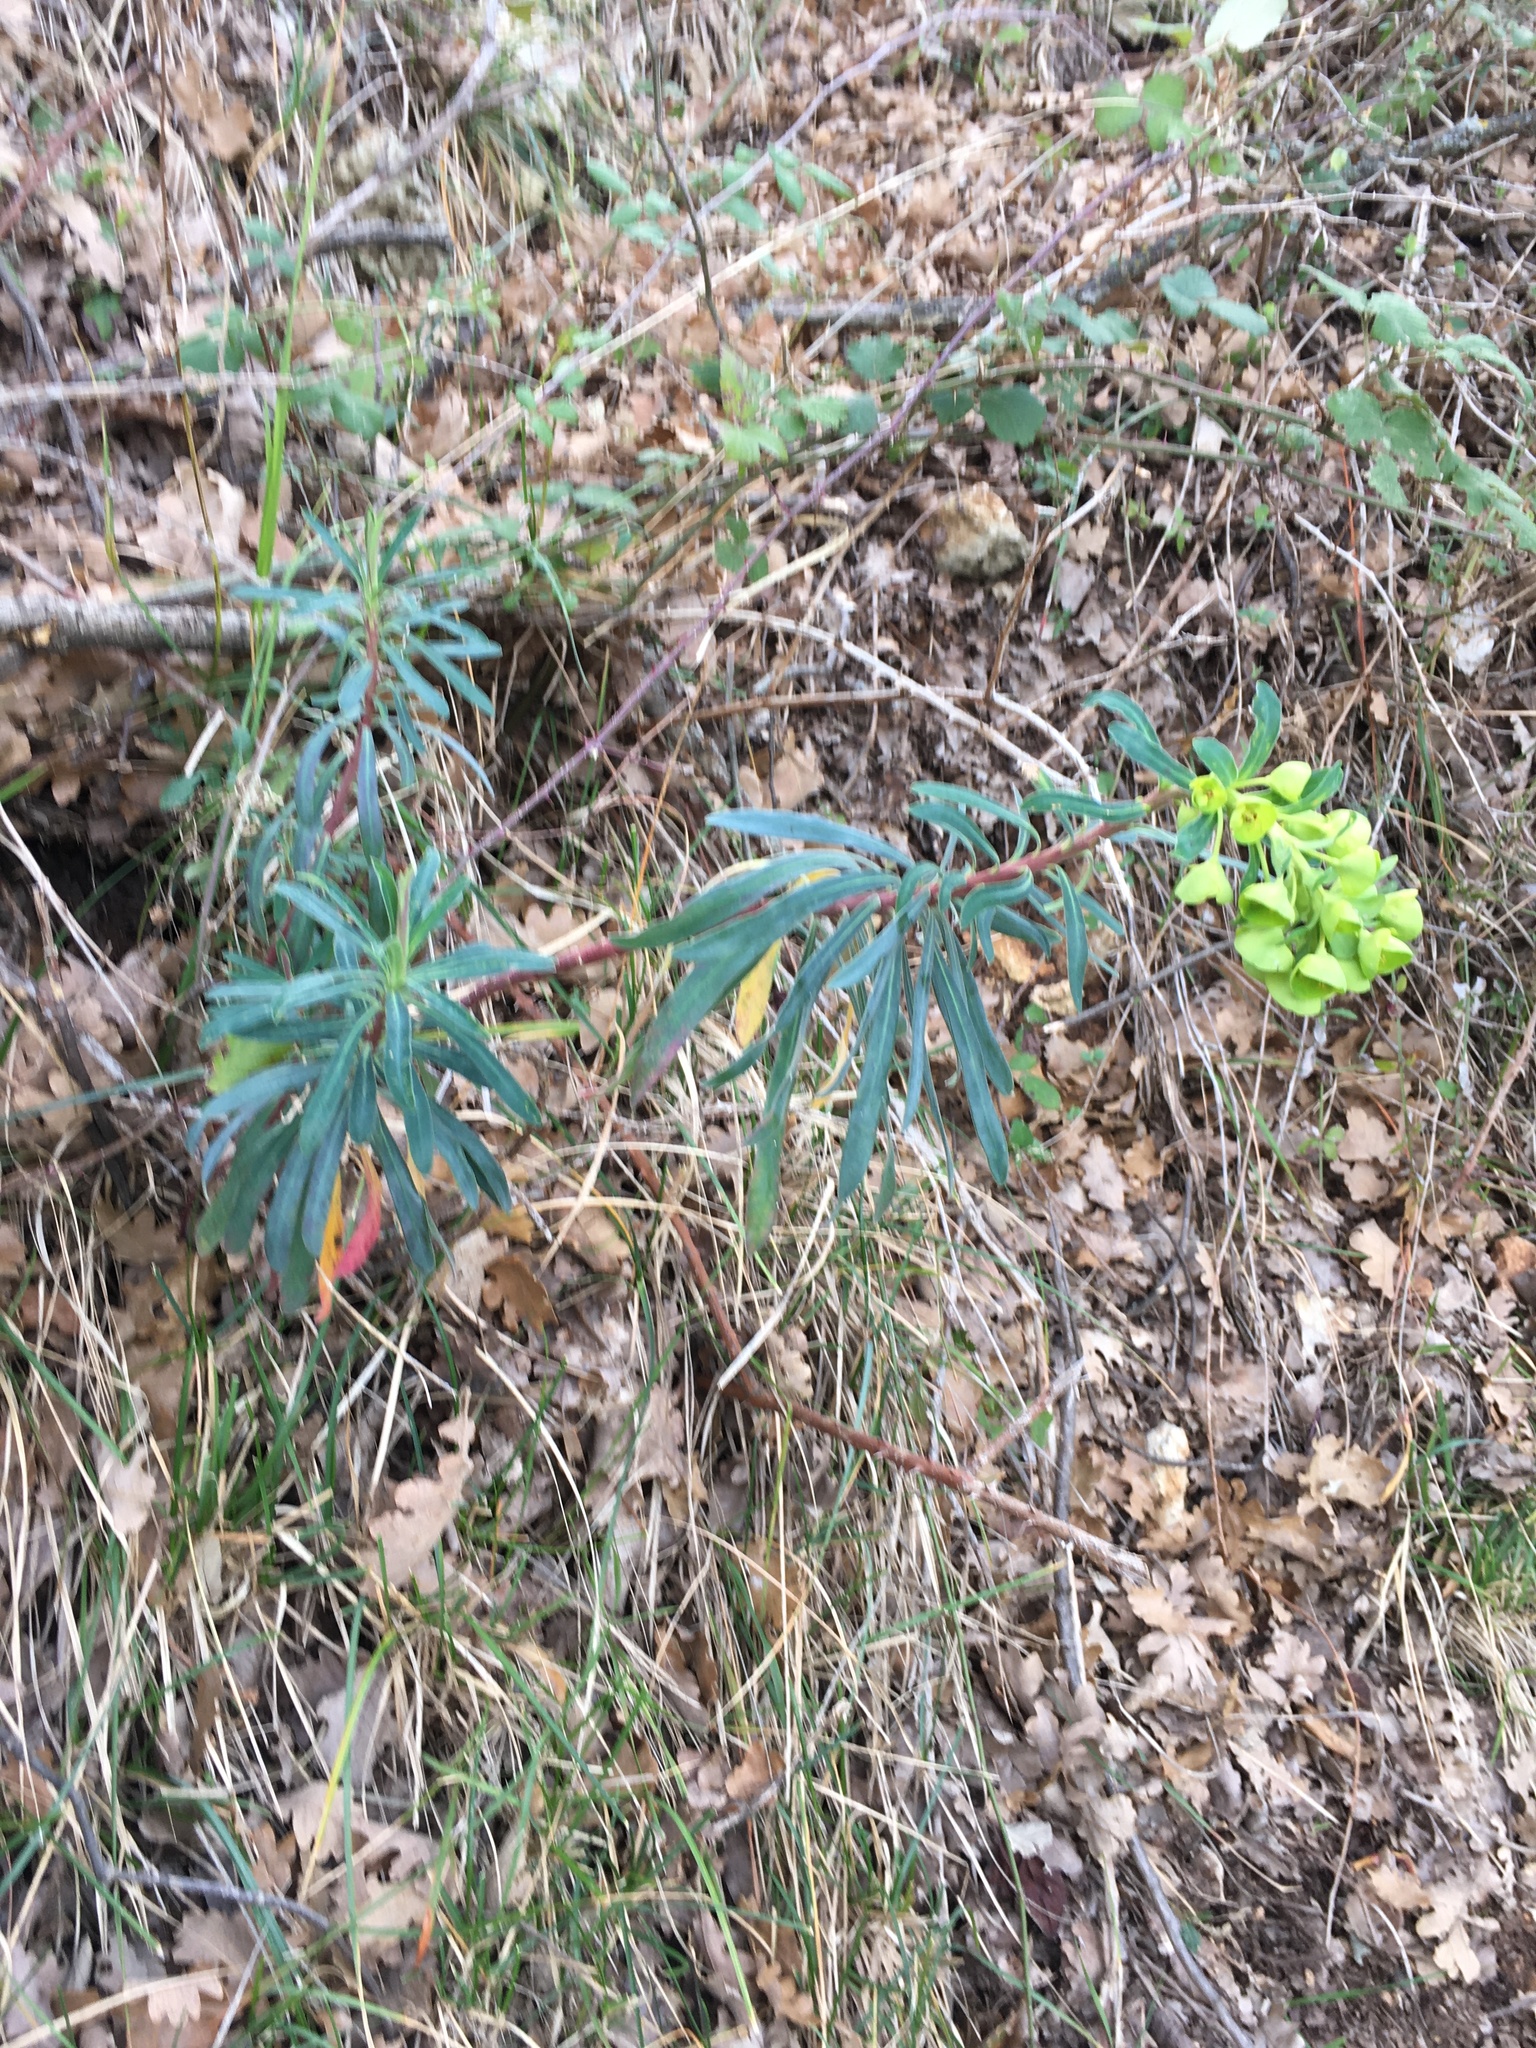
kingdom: Plantae
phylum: Tracheophyta
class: Magnoliopsida
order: Malpighiales
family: Euphorbiaceae
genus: Euphorbia
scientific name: Euphorbia characias
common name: Mediterranean spurge
